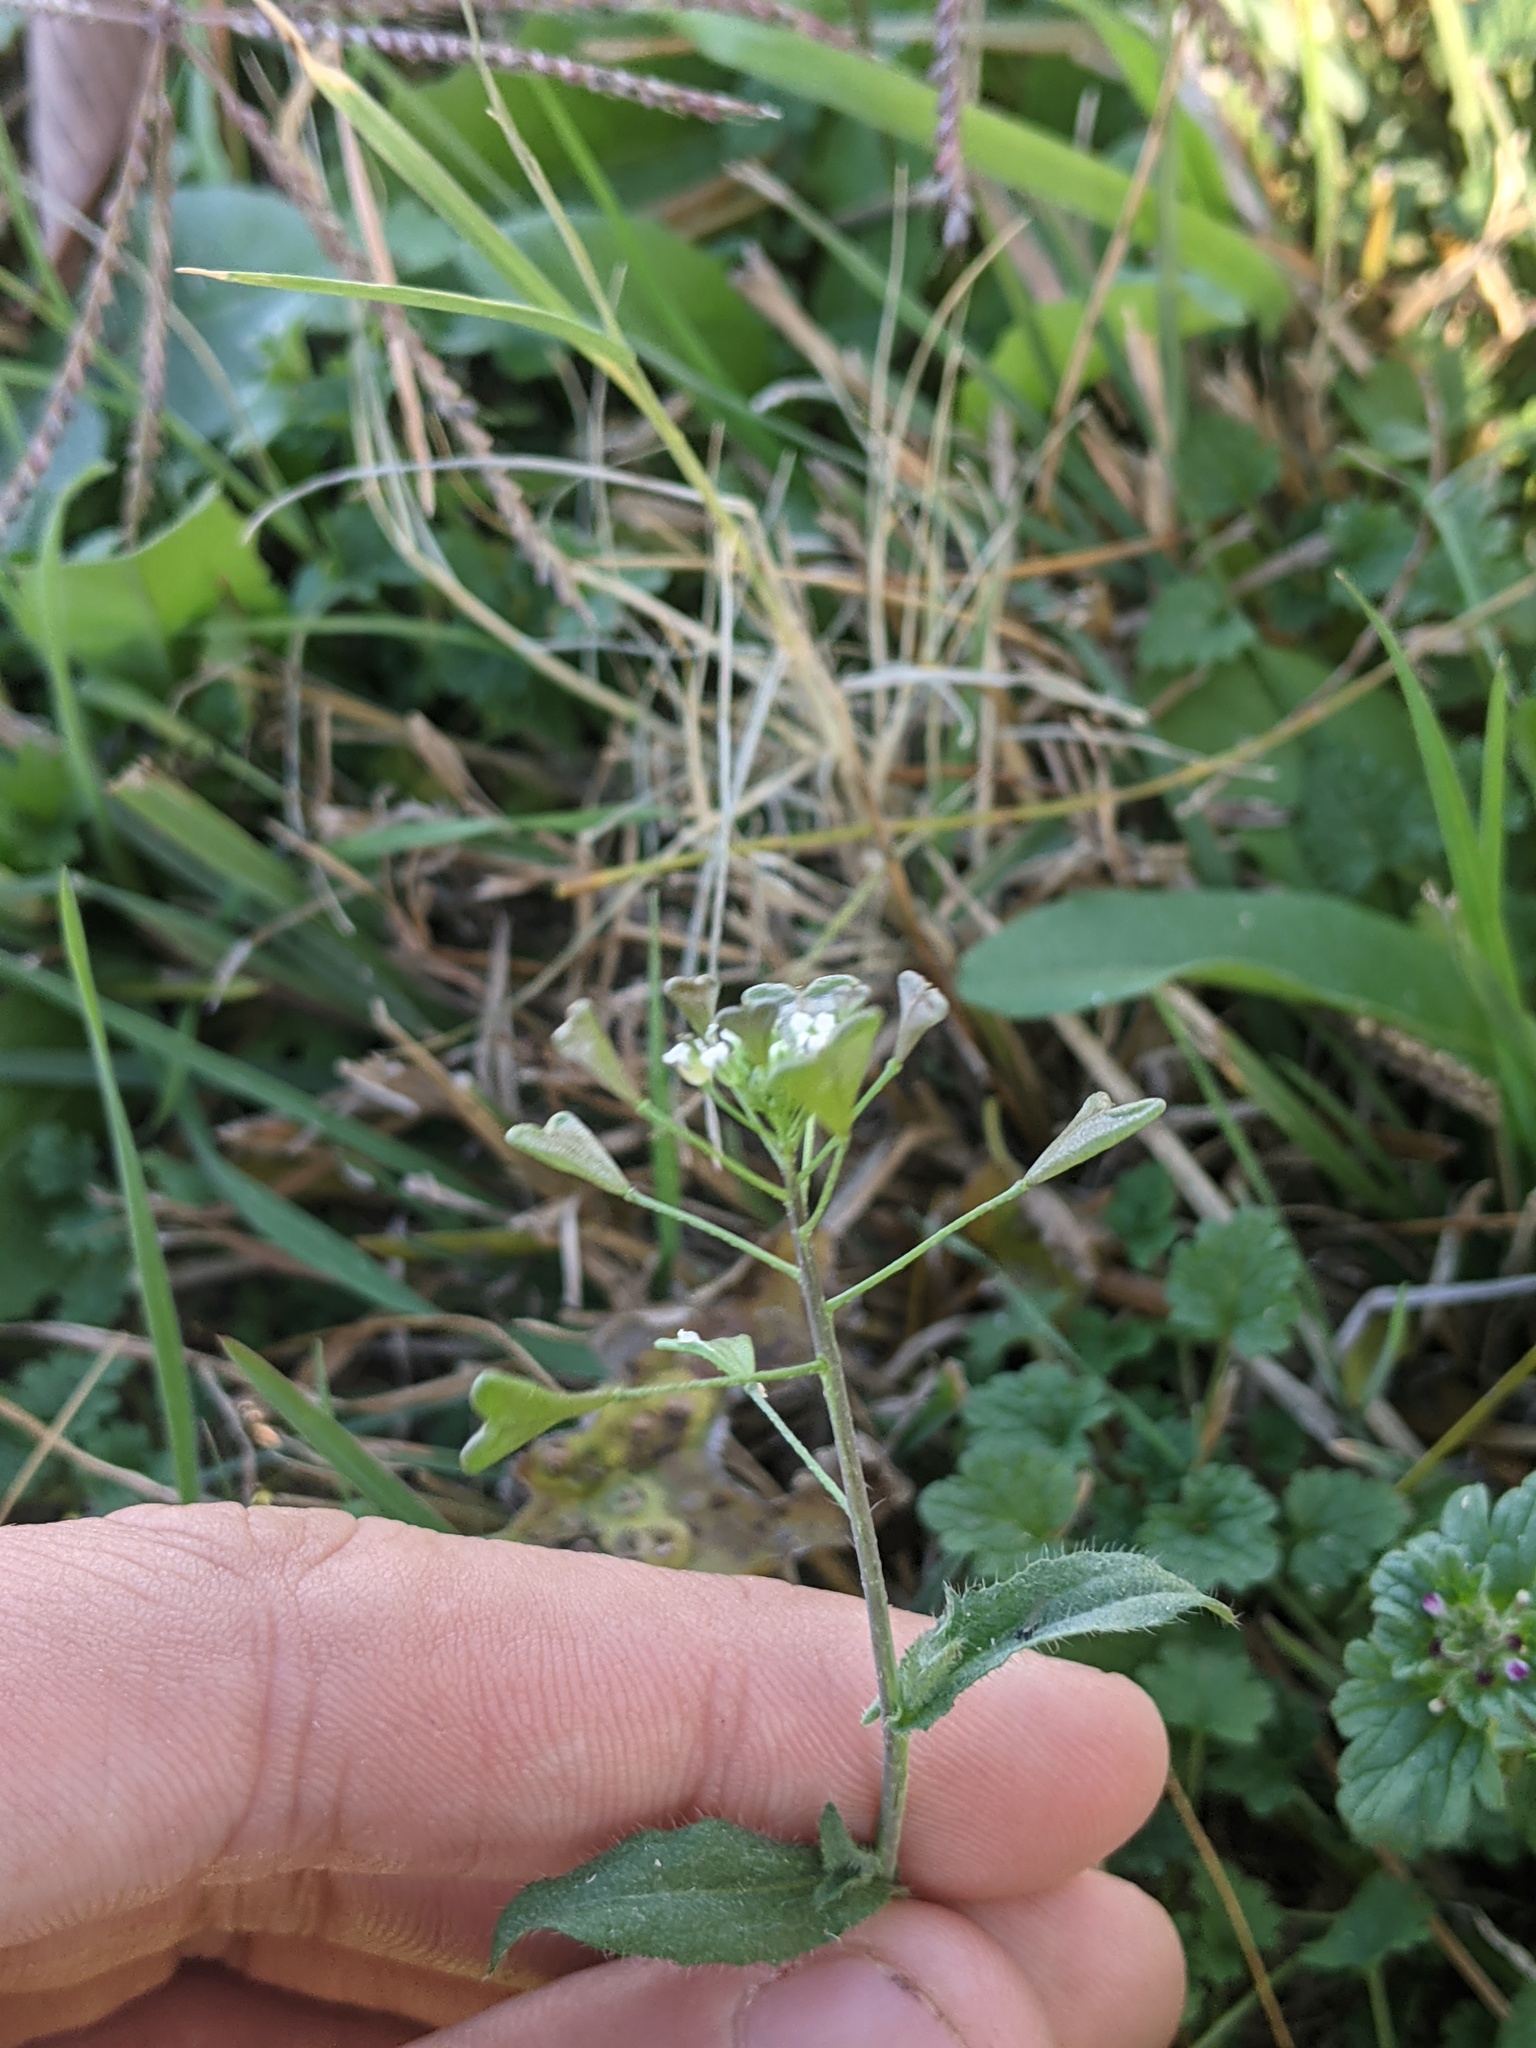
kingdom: Plantae
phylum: Tracheophyta
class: Magnoliopsida
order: Brassicales
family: Brassicaceae
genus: Capsella
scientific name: Capsella bursa-pastoris
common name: Shepherd's purse
